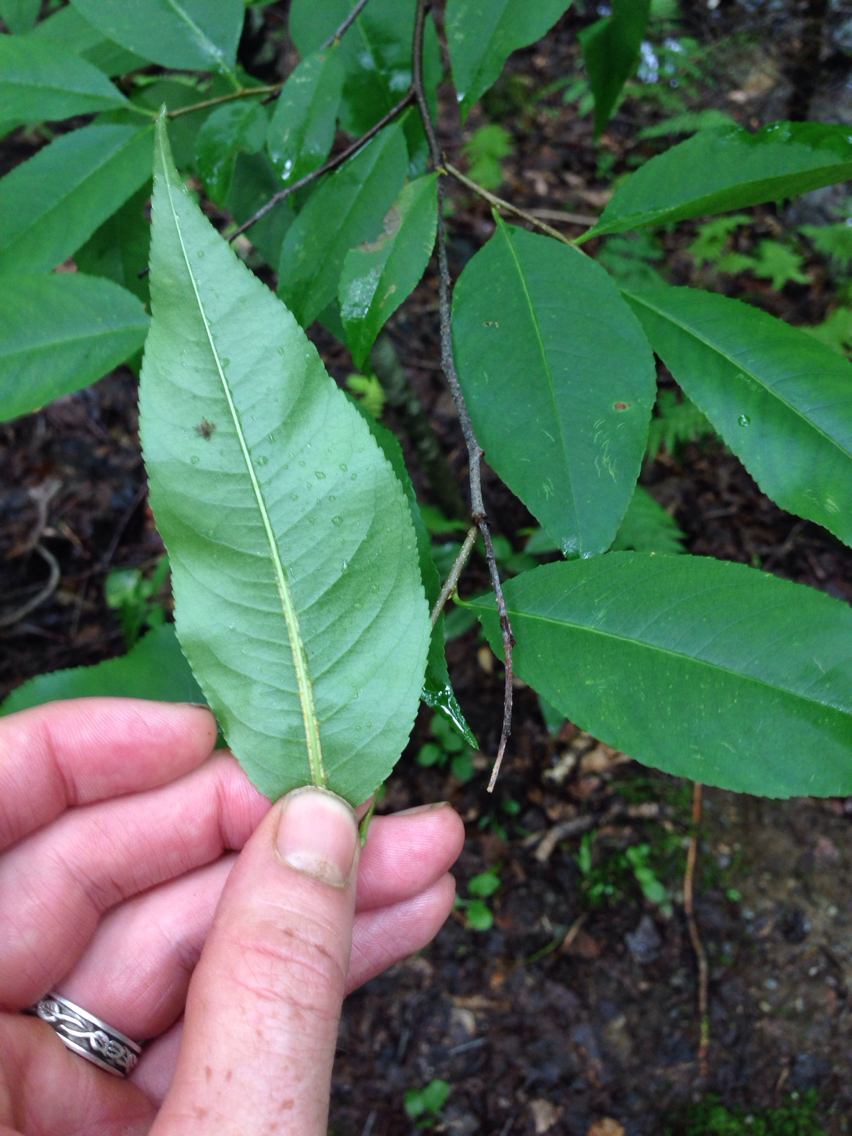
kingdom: Plantae
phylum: Tracheophyta
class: Magnoliopsida
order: Rosales
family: Rosaceae
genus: Prunus
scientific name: Prunus serotina
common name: Black cherry
